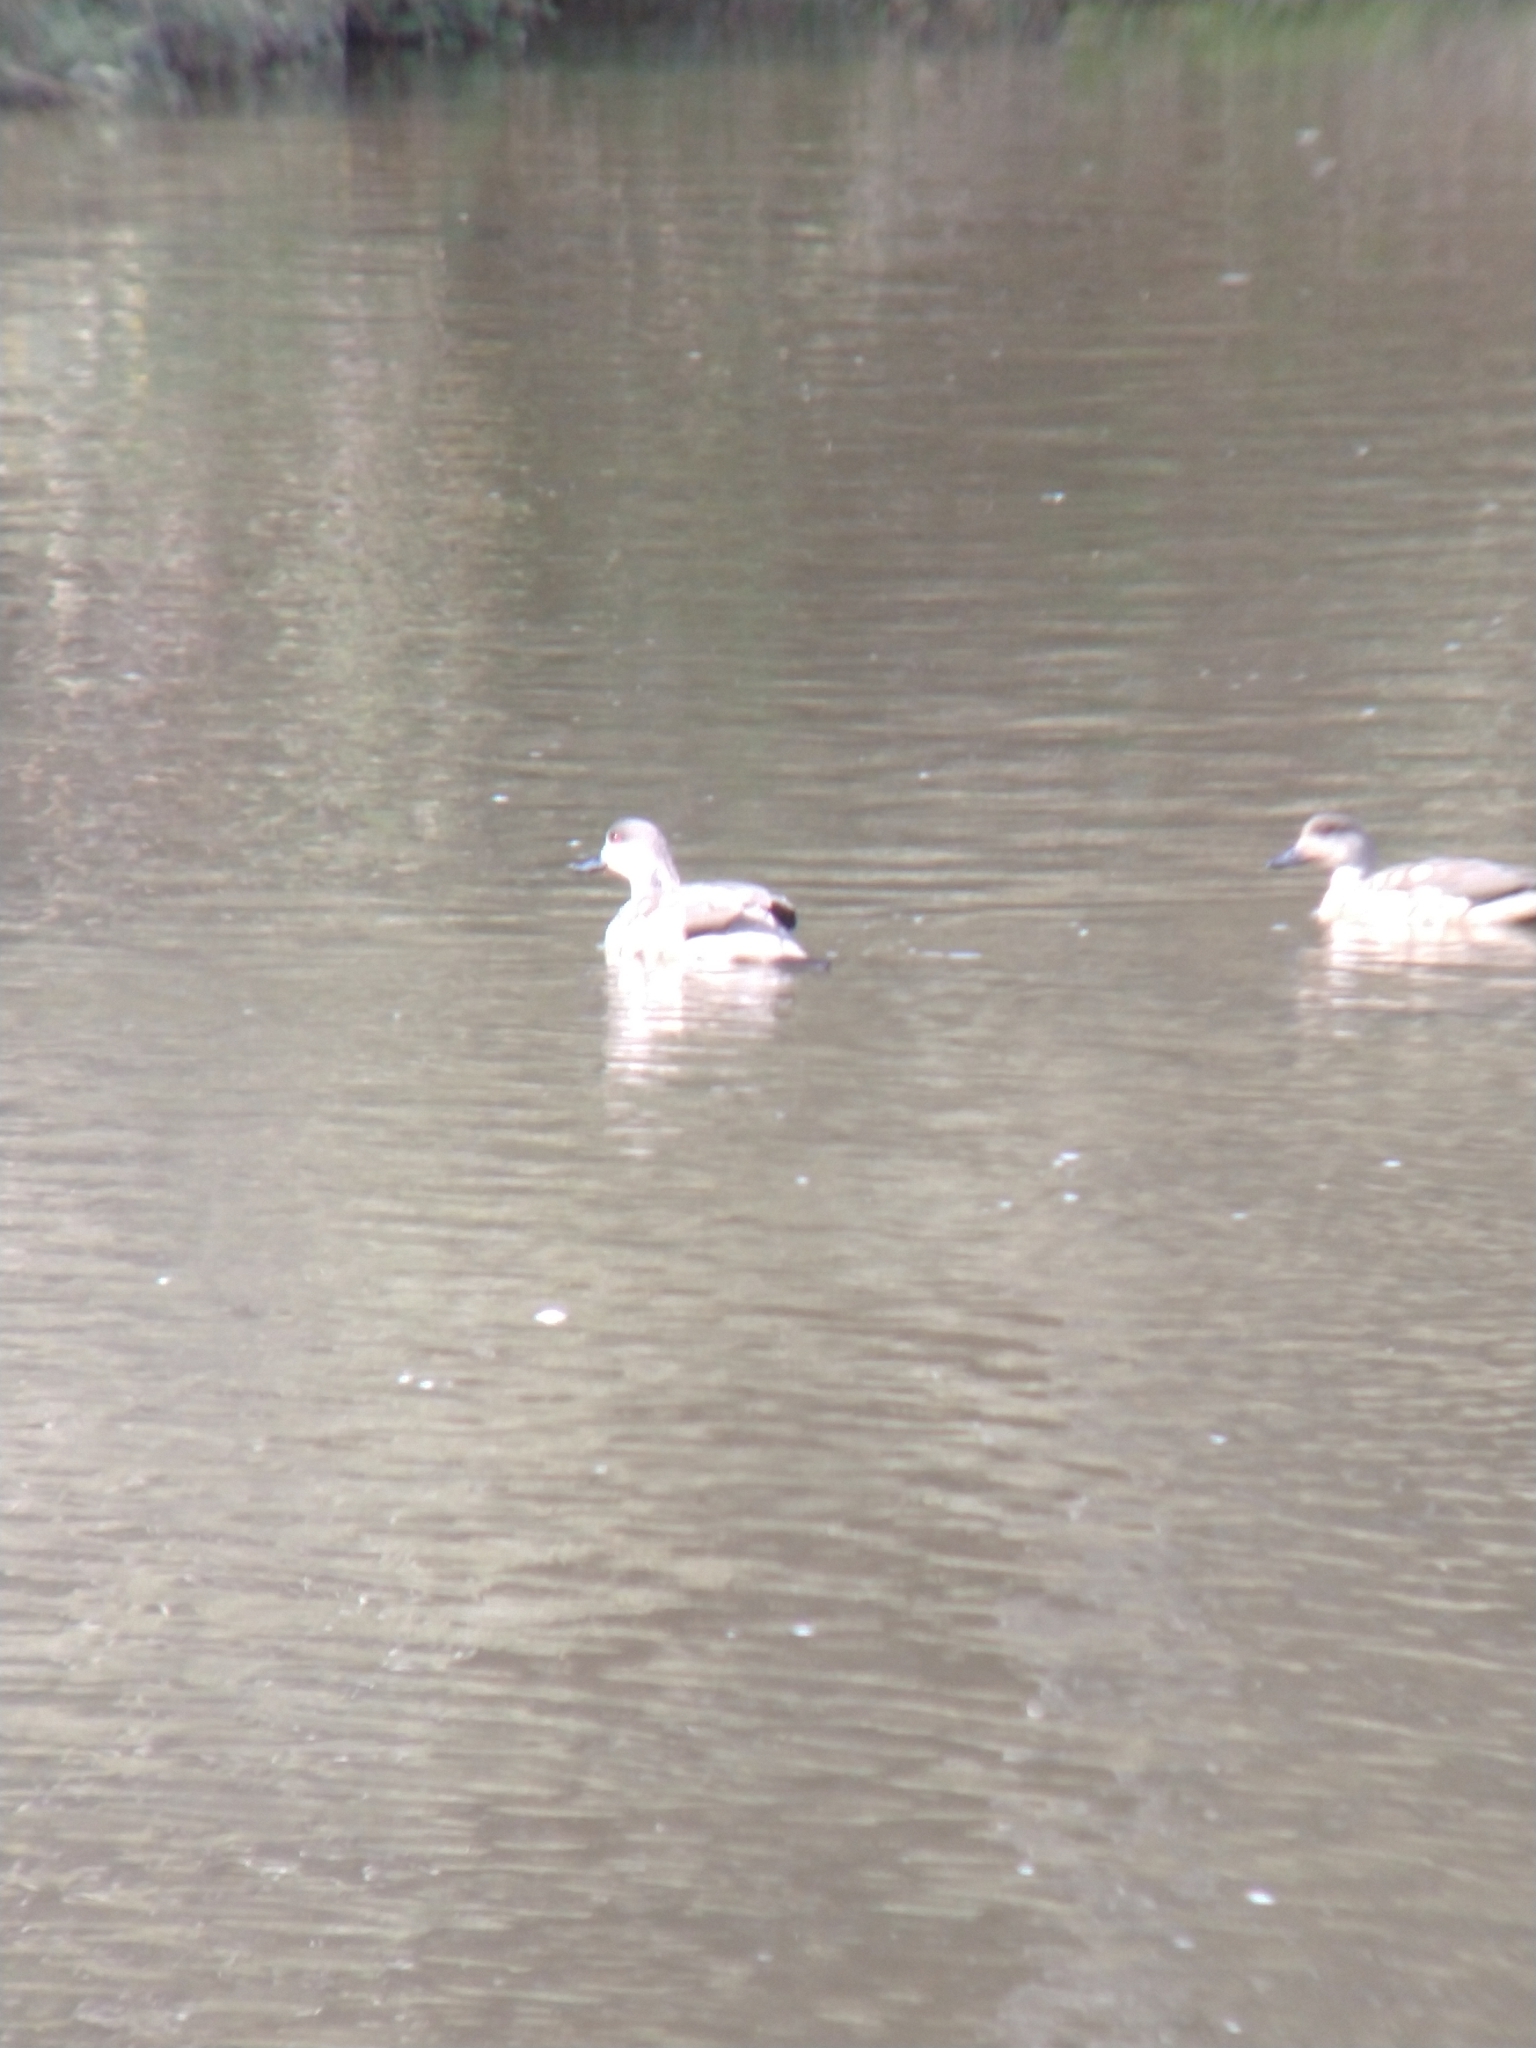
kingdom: Animalia
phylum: Chordata
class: Aves
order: Anseriformes
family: Anatidae
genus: Lophonetta
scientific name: Lophonetta specularioides
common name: Crested duck
